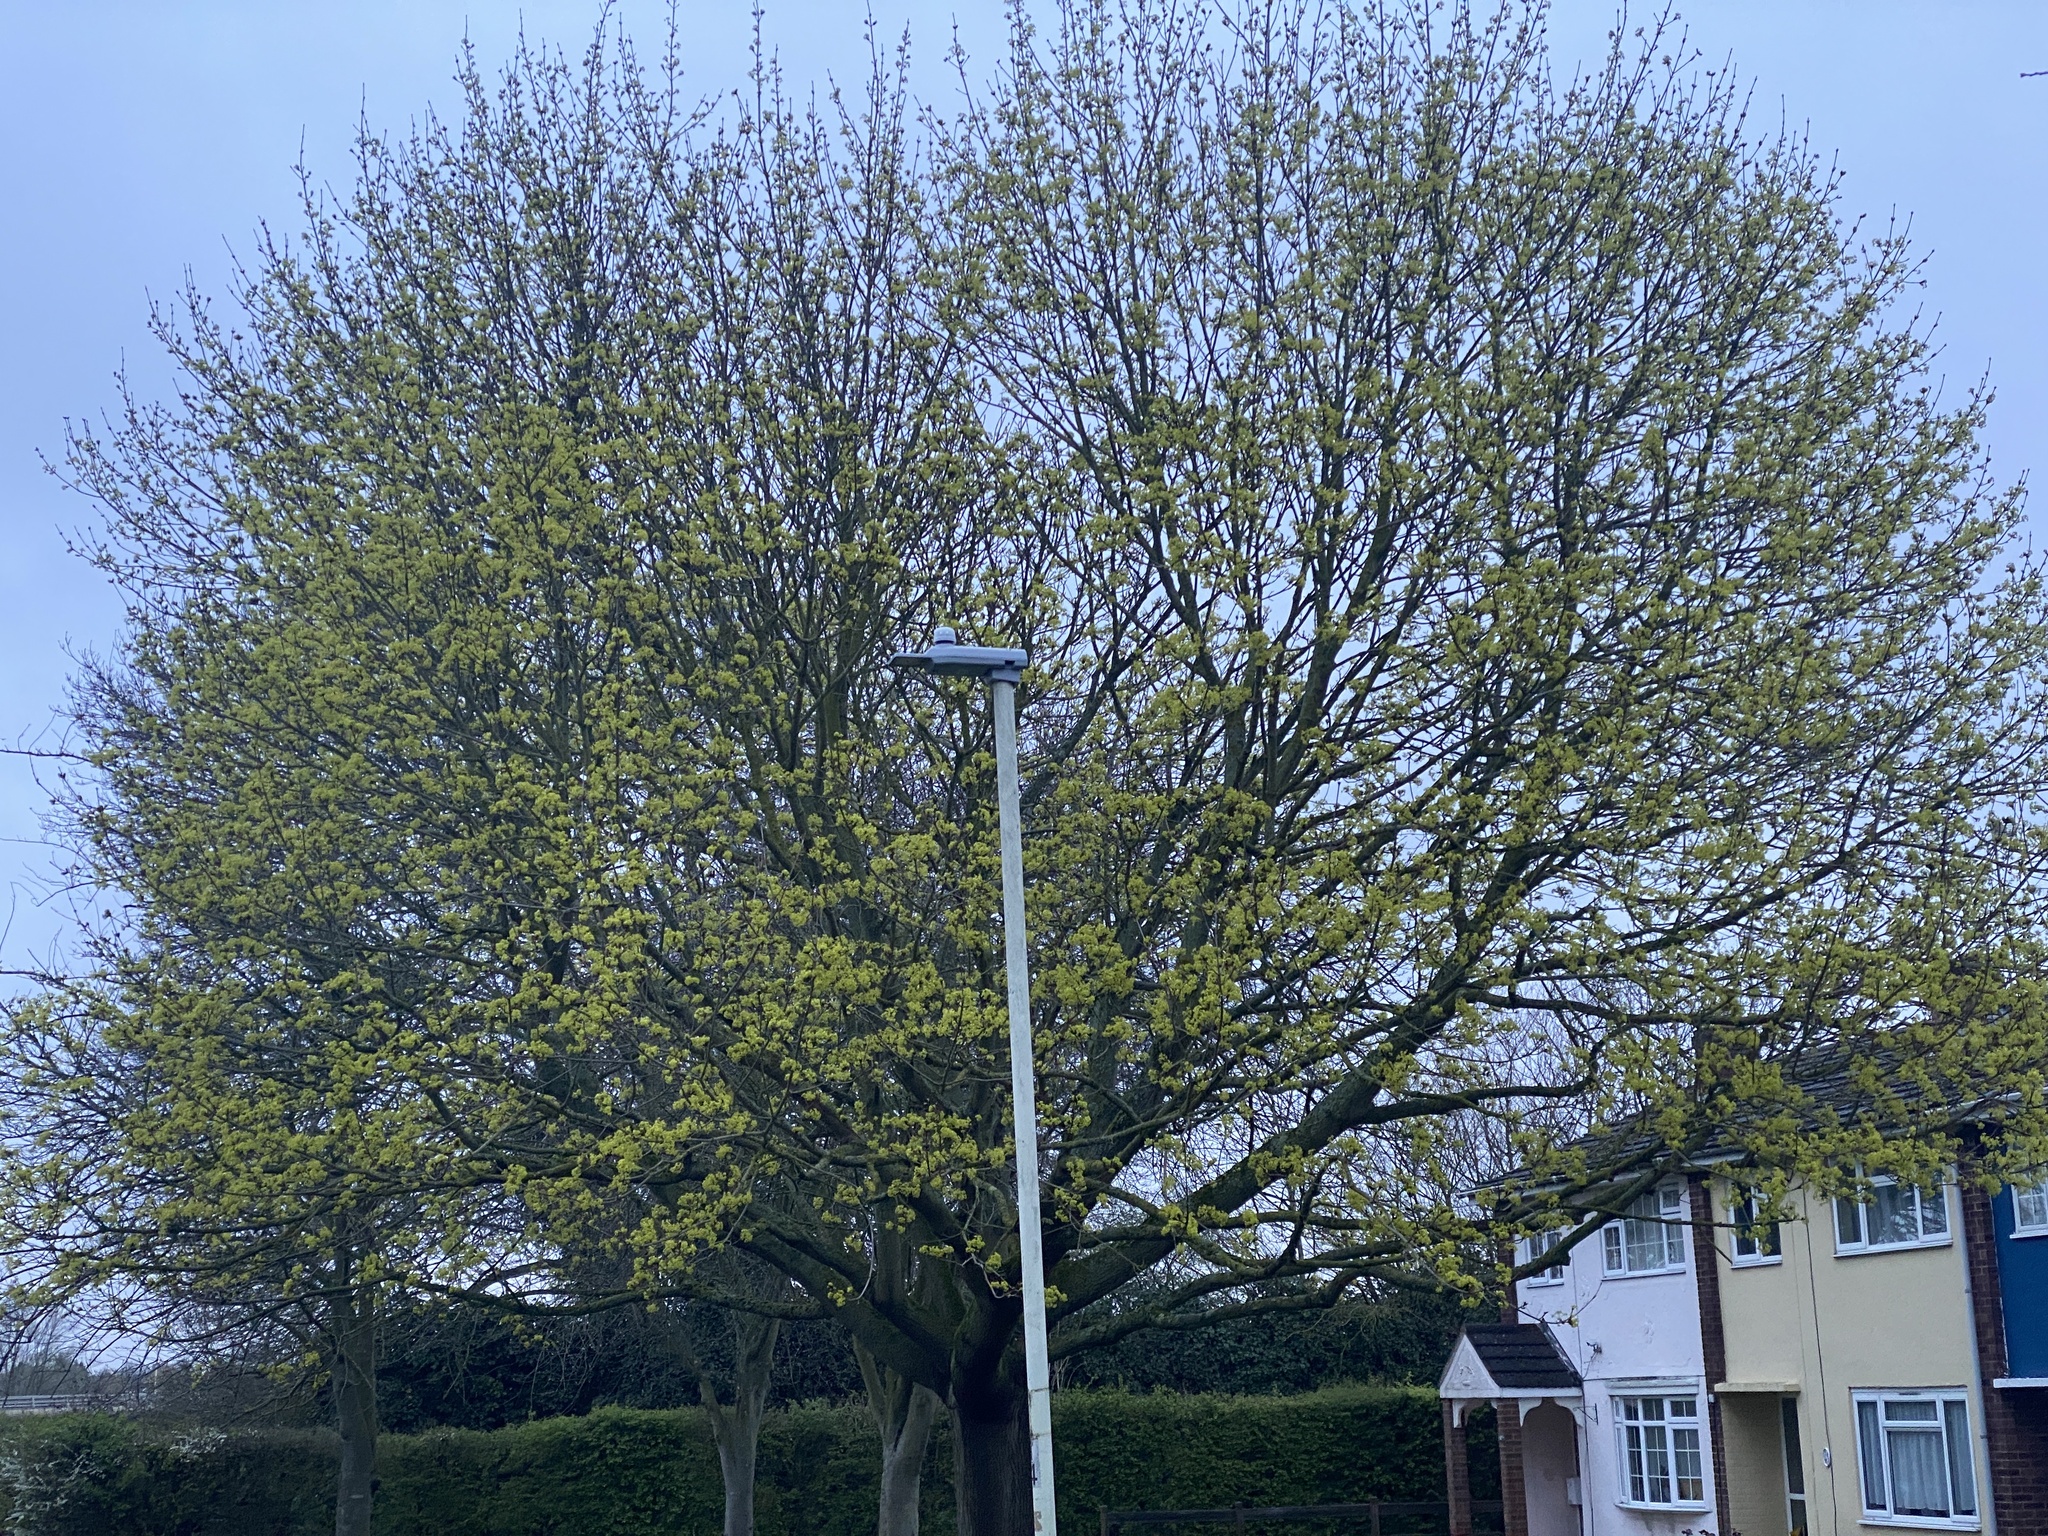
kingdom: Plantae
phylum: Tracheophyta
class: Magnoliopsida
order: Sapindales
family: Sapindaceae
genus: Acer
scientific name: Acer platanoides
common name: Norway maple
